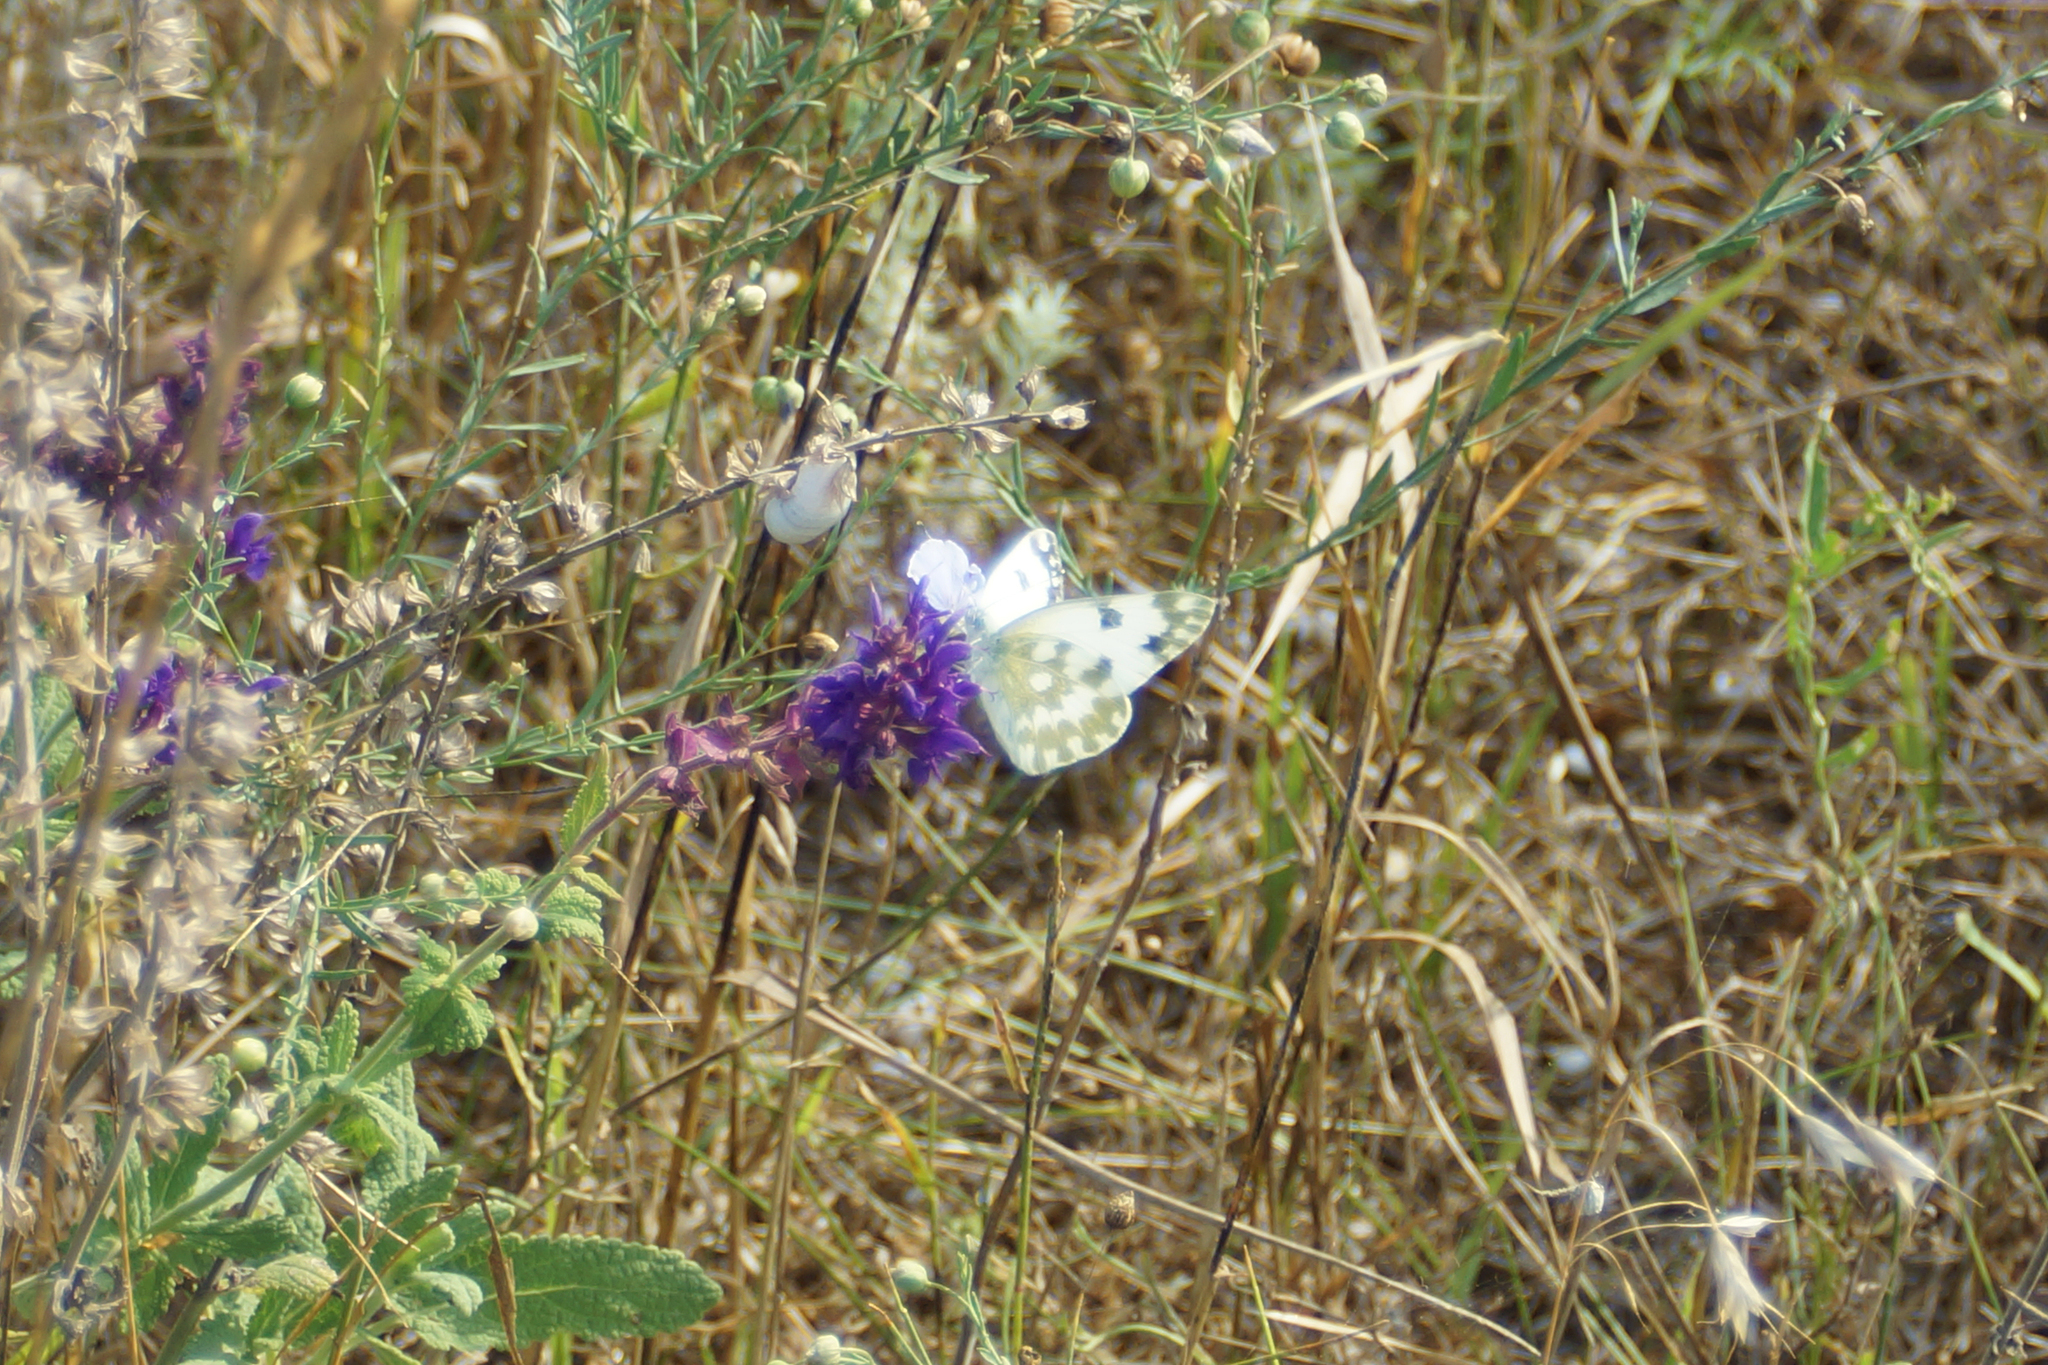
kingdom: Animalia
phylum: Arthropoda
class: Insecta
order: Lepidoptera
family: Pieridae
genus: Pontia
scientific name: Pontia edusa
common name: Eastern bath white
